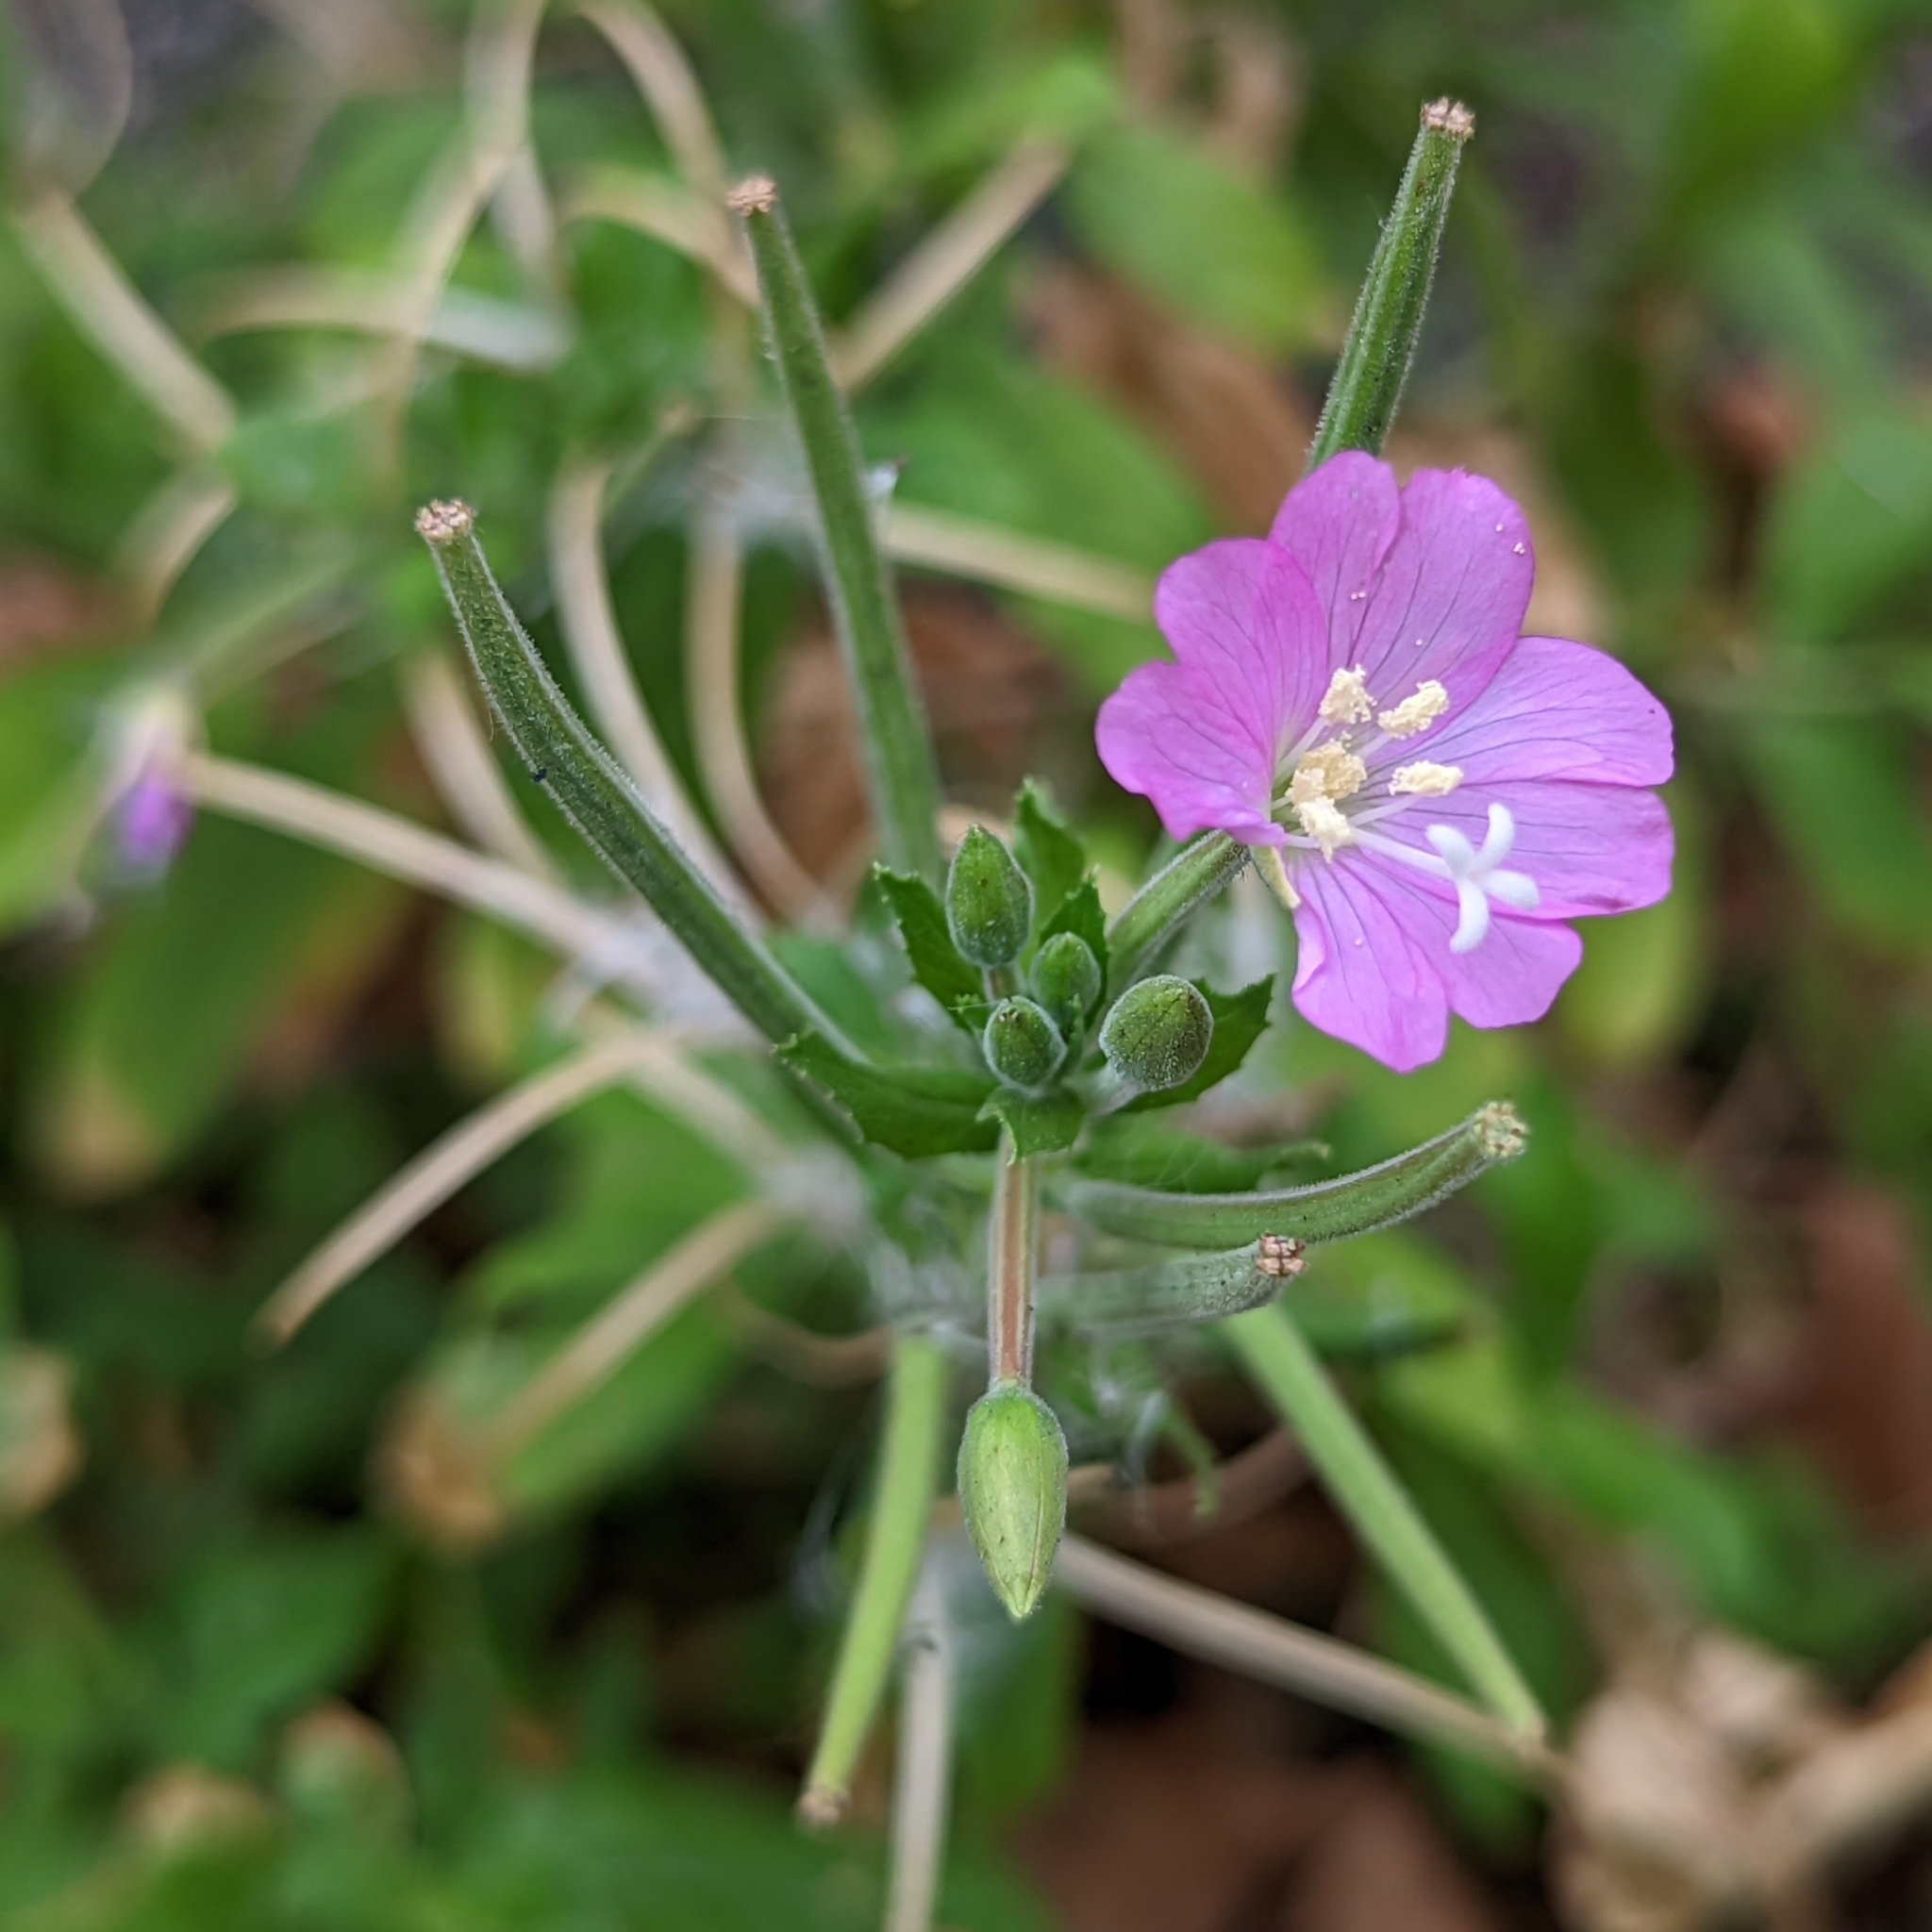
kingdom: Plantae
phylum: Tracheophyta
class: Magnoliopsida
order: Myrtales
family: Onagraceae
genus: Epilobium
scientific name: Epilobium hirsutum
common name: Great willowherb
